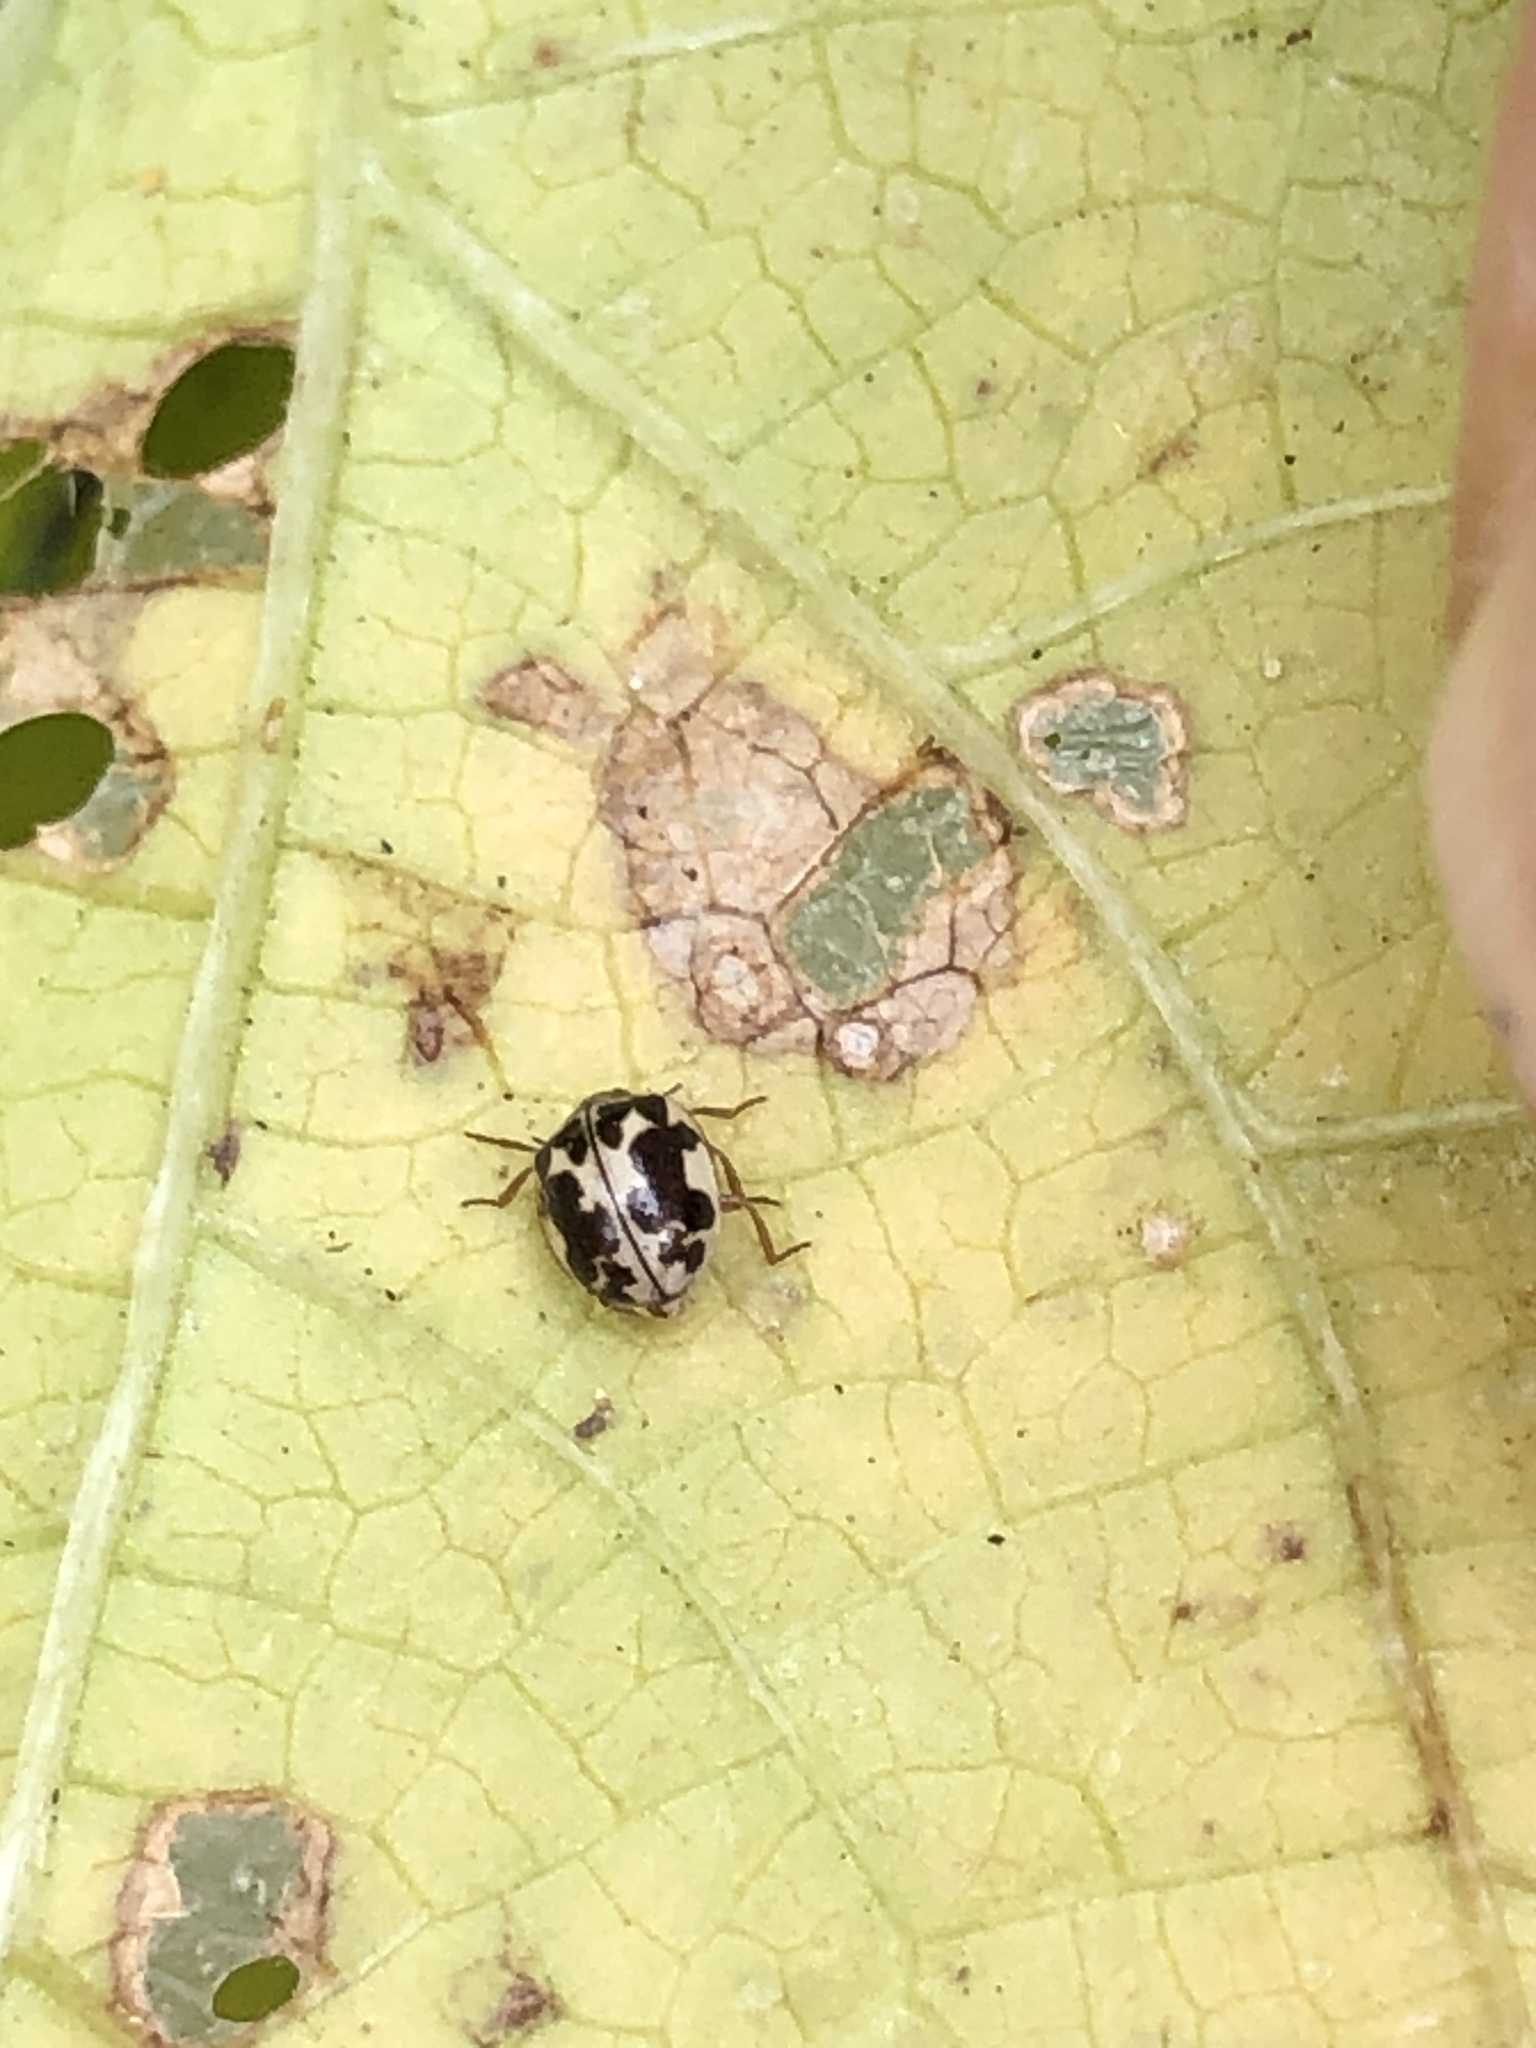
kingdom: Animalia
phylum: Arthropoda
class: Insecta
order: Coleoptera
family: Coccinellidae
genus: Psyllobora
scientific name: Psyllobora vigintimaculata
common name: Ladybird beetle
